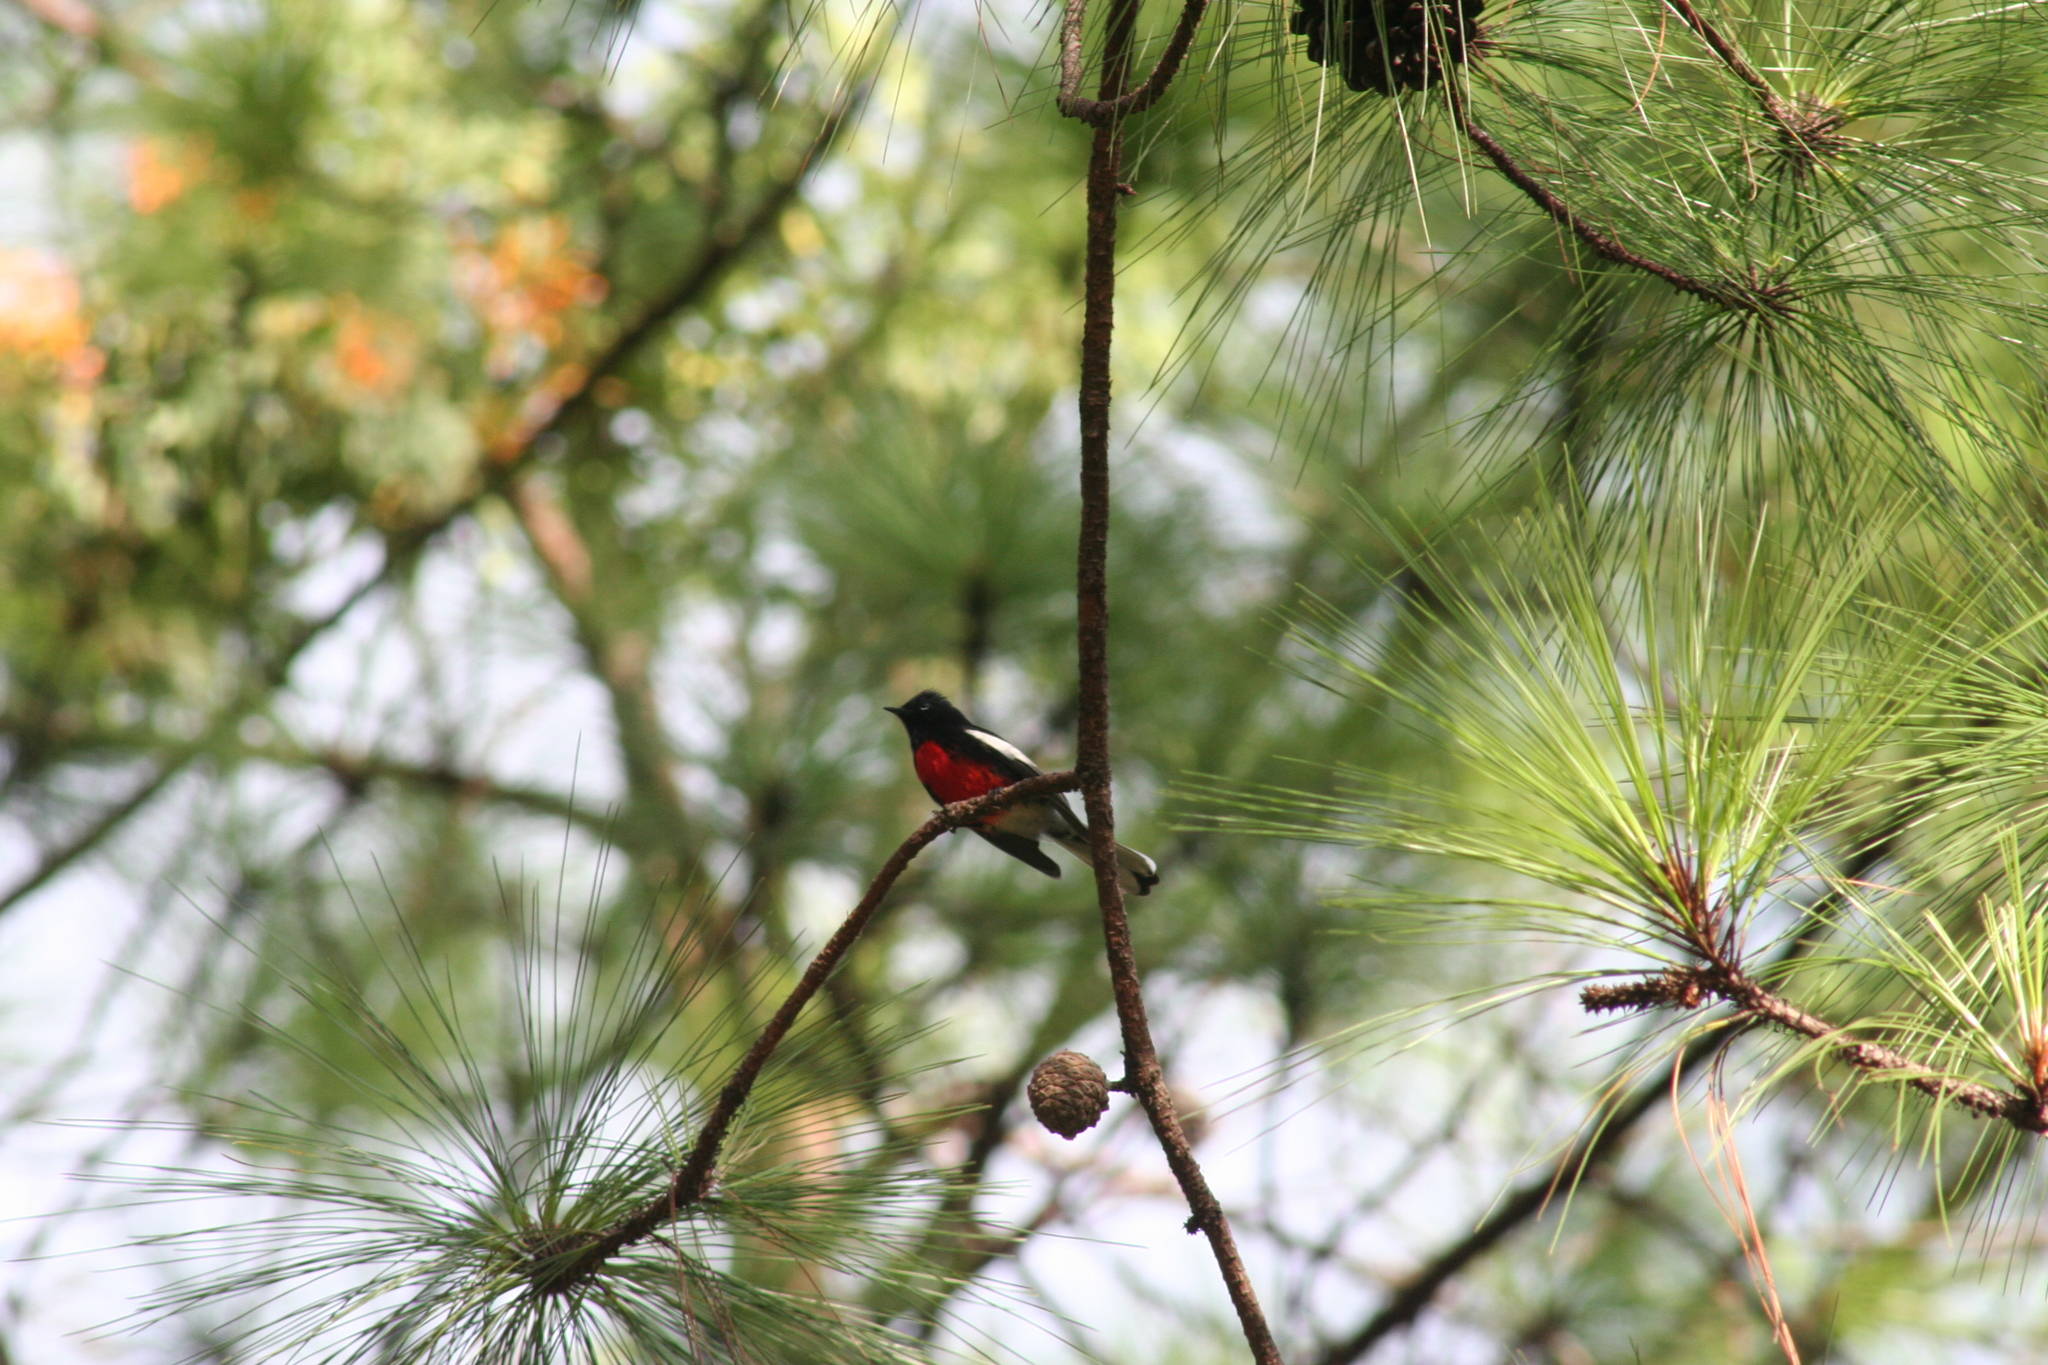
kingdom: Animalia
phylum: Chordata
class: Aves
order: Passeriformes
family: Parulidae
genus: Myioborus
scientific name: Myioborus pictus
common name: Painted whitestart
